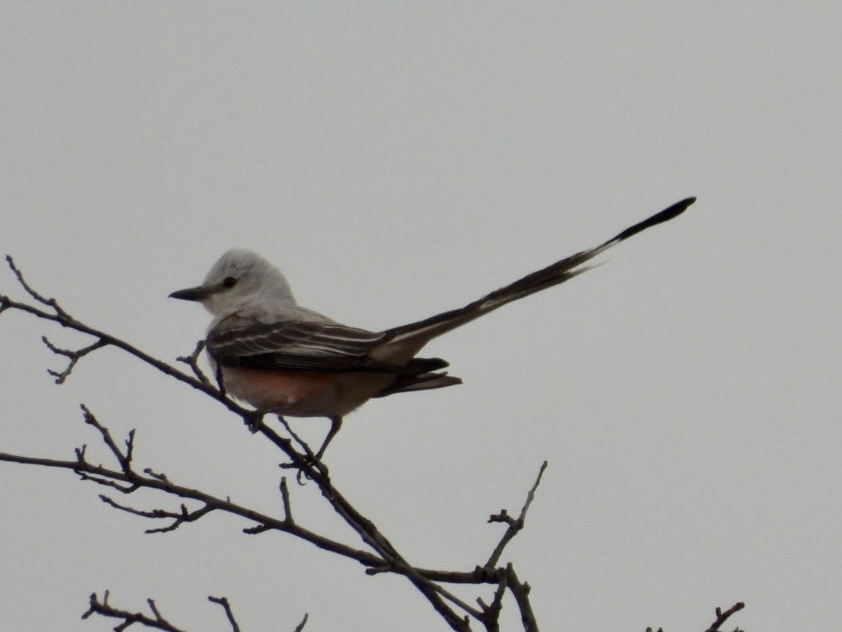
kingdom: Animalia
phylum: Chordata
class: Aves
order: Passeriformes
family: Tyrannidae
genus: Tyrannus
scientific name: Tyrannus forficatus
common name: Scissor-tailed flycatcher
